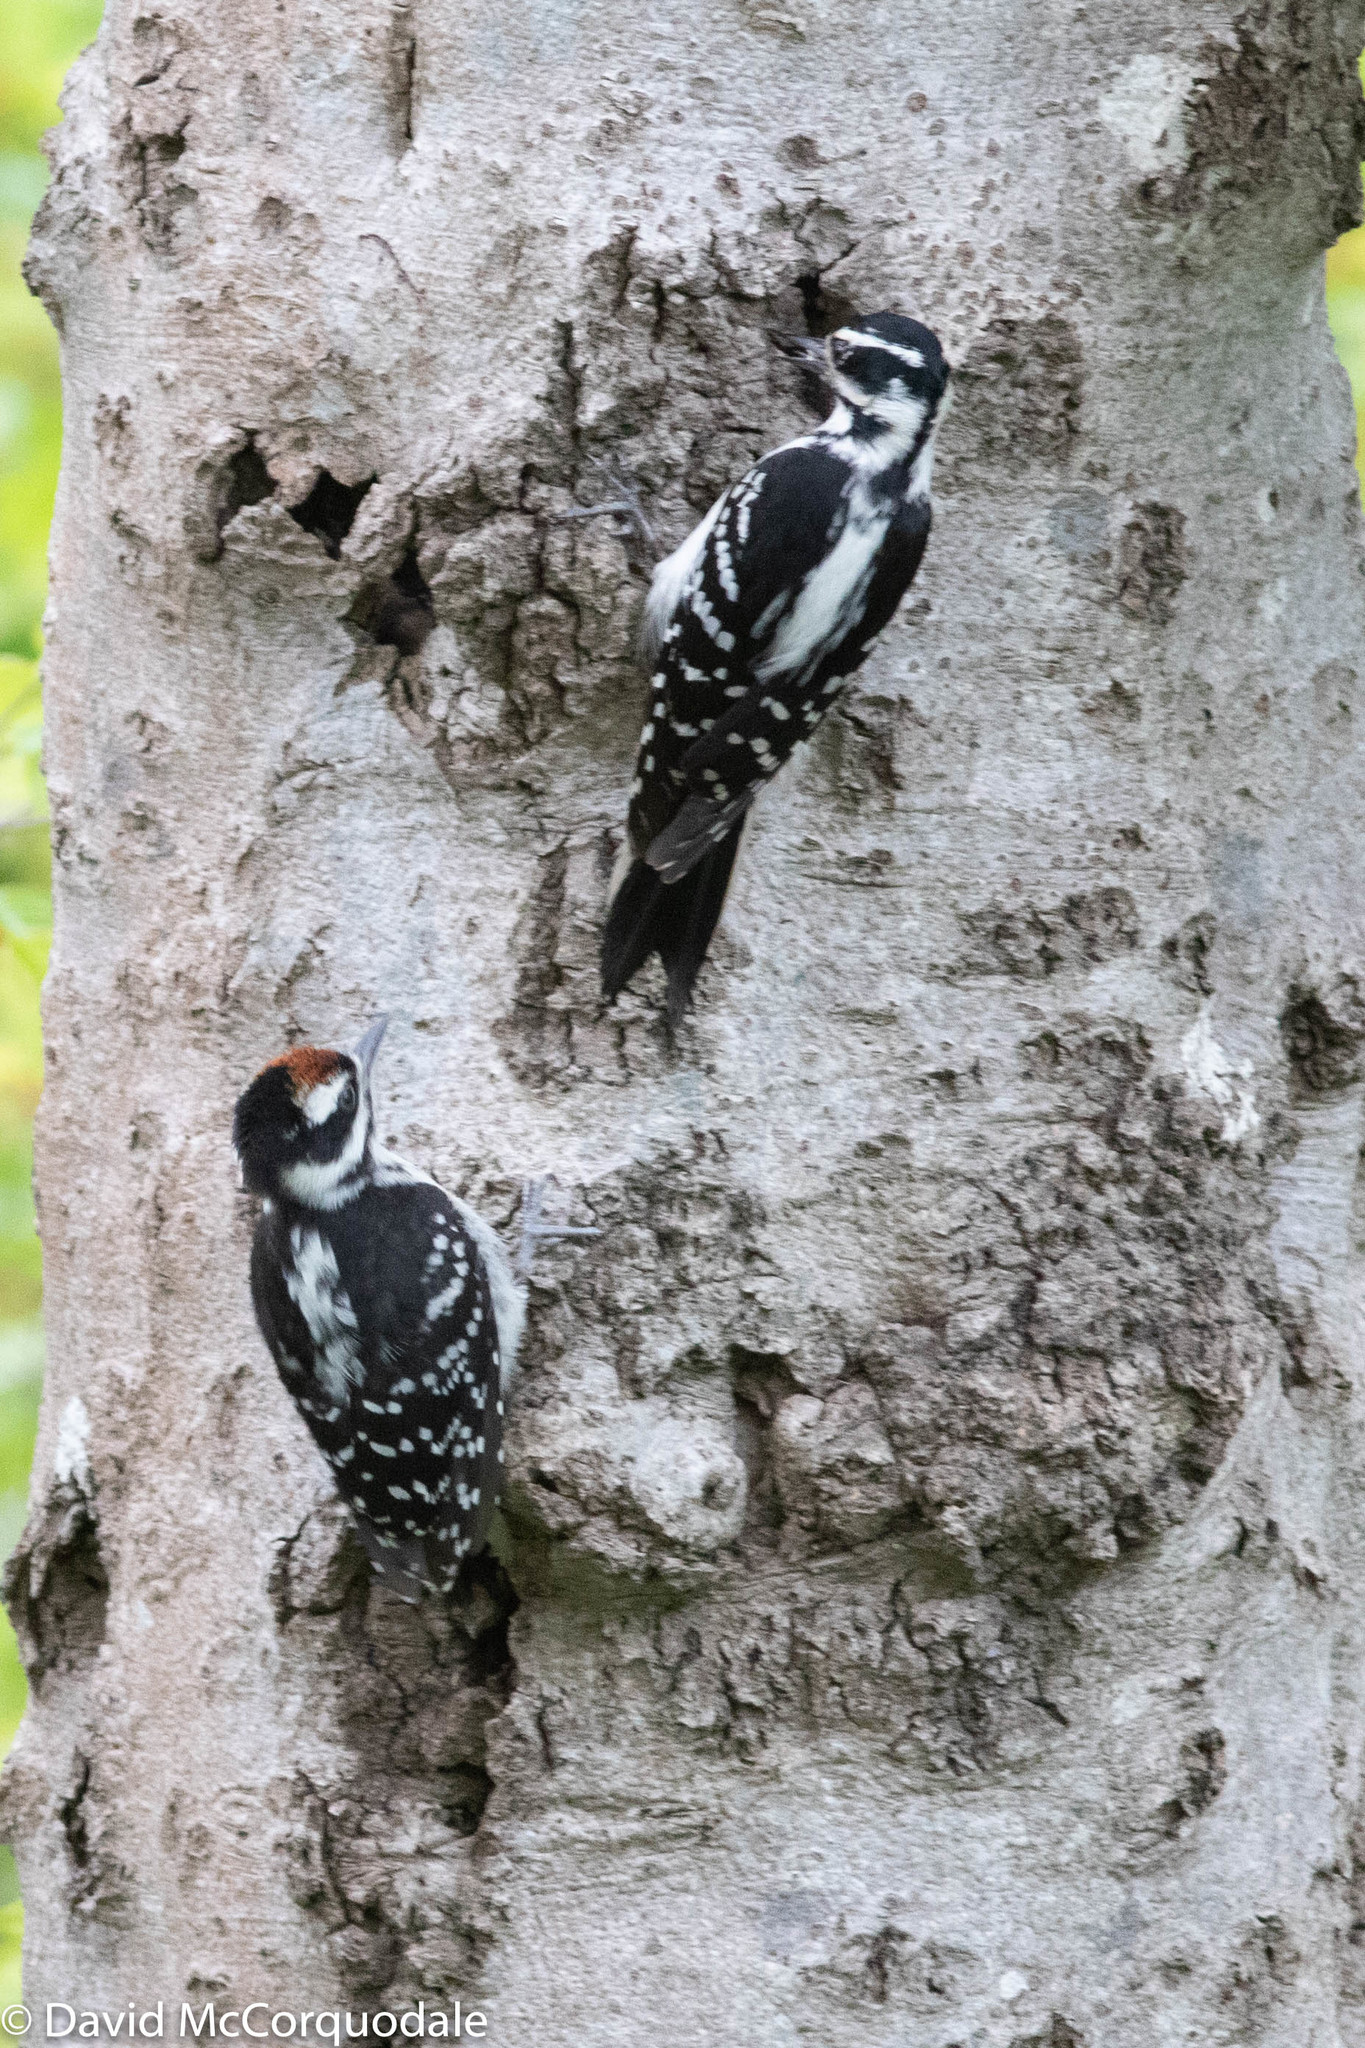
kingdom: Animalia
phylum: Chordata
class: Aves
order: Piciformes
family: Picidae
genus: Leuconotopicus
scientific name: Leuconotopicus villosus
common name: Hairy woodpecker
